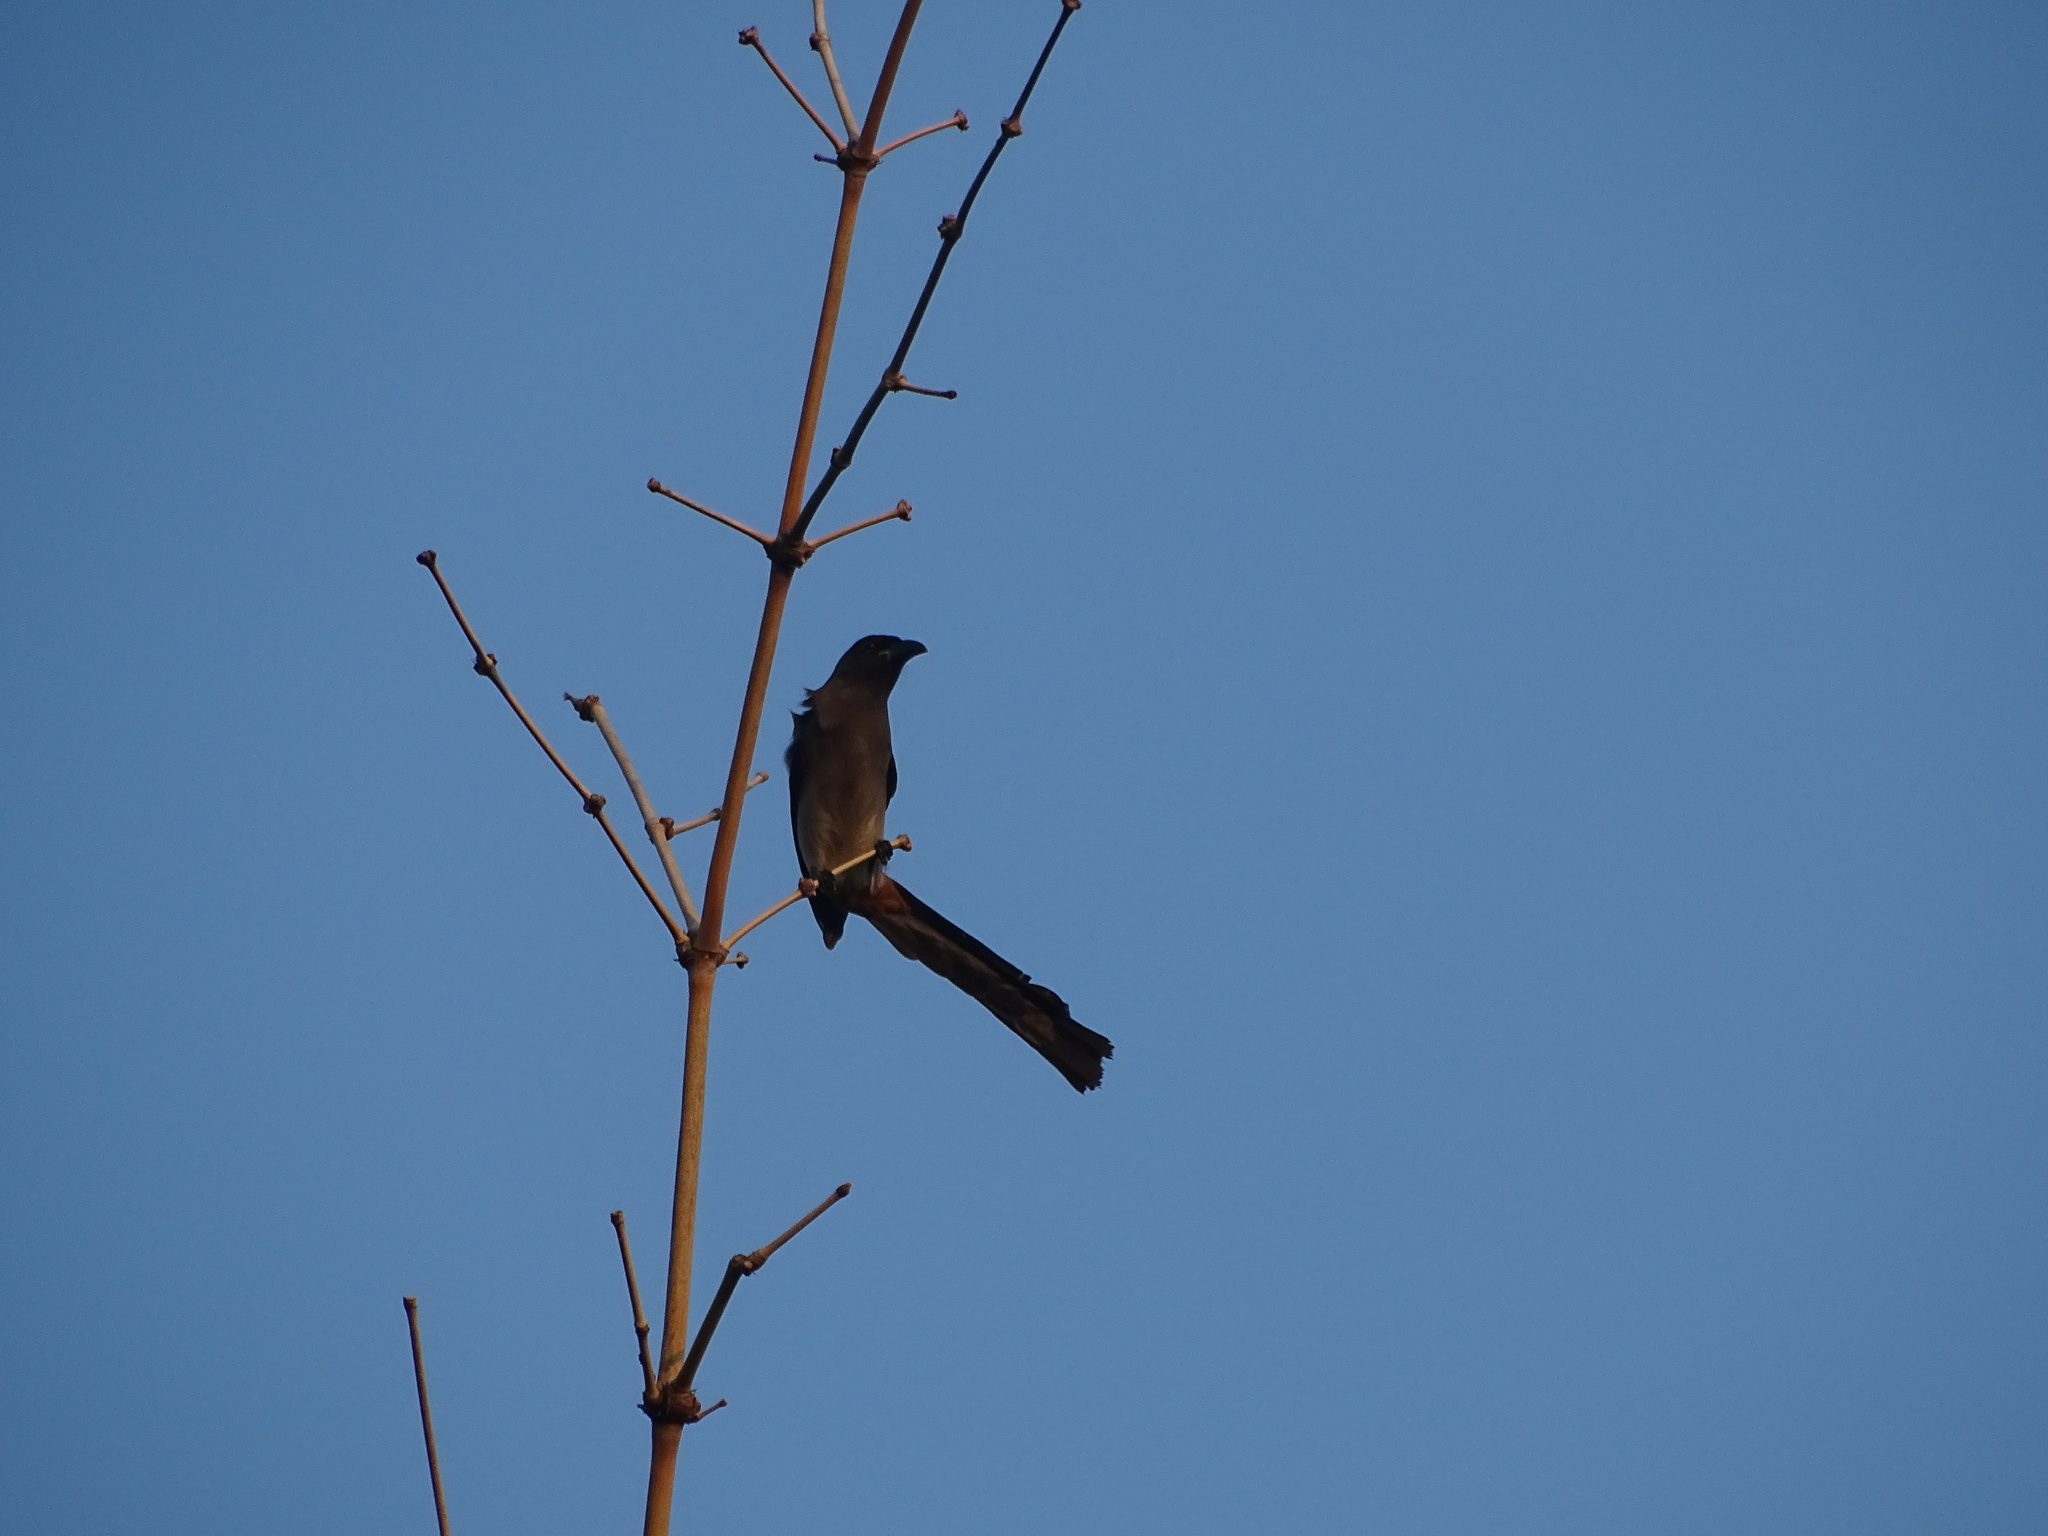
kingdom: Animalia
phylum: Chordata
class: Aves
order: Passeriformes
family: Corvidae
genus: Dendrocitta
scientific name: Dendrocitta formosae
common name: Grey treepie
